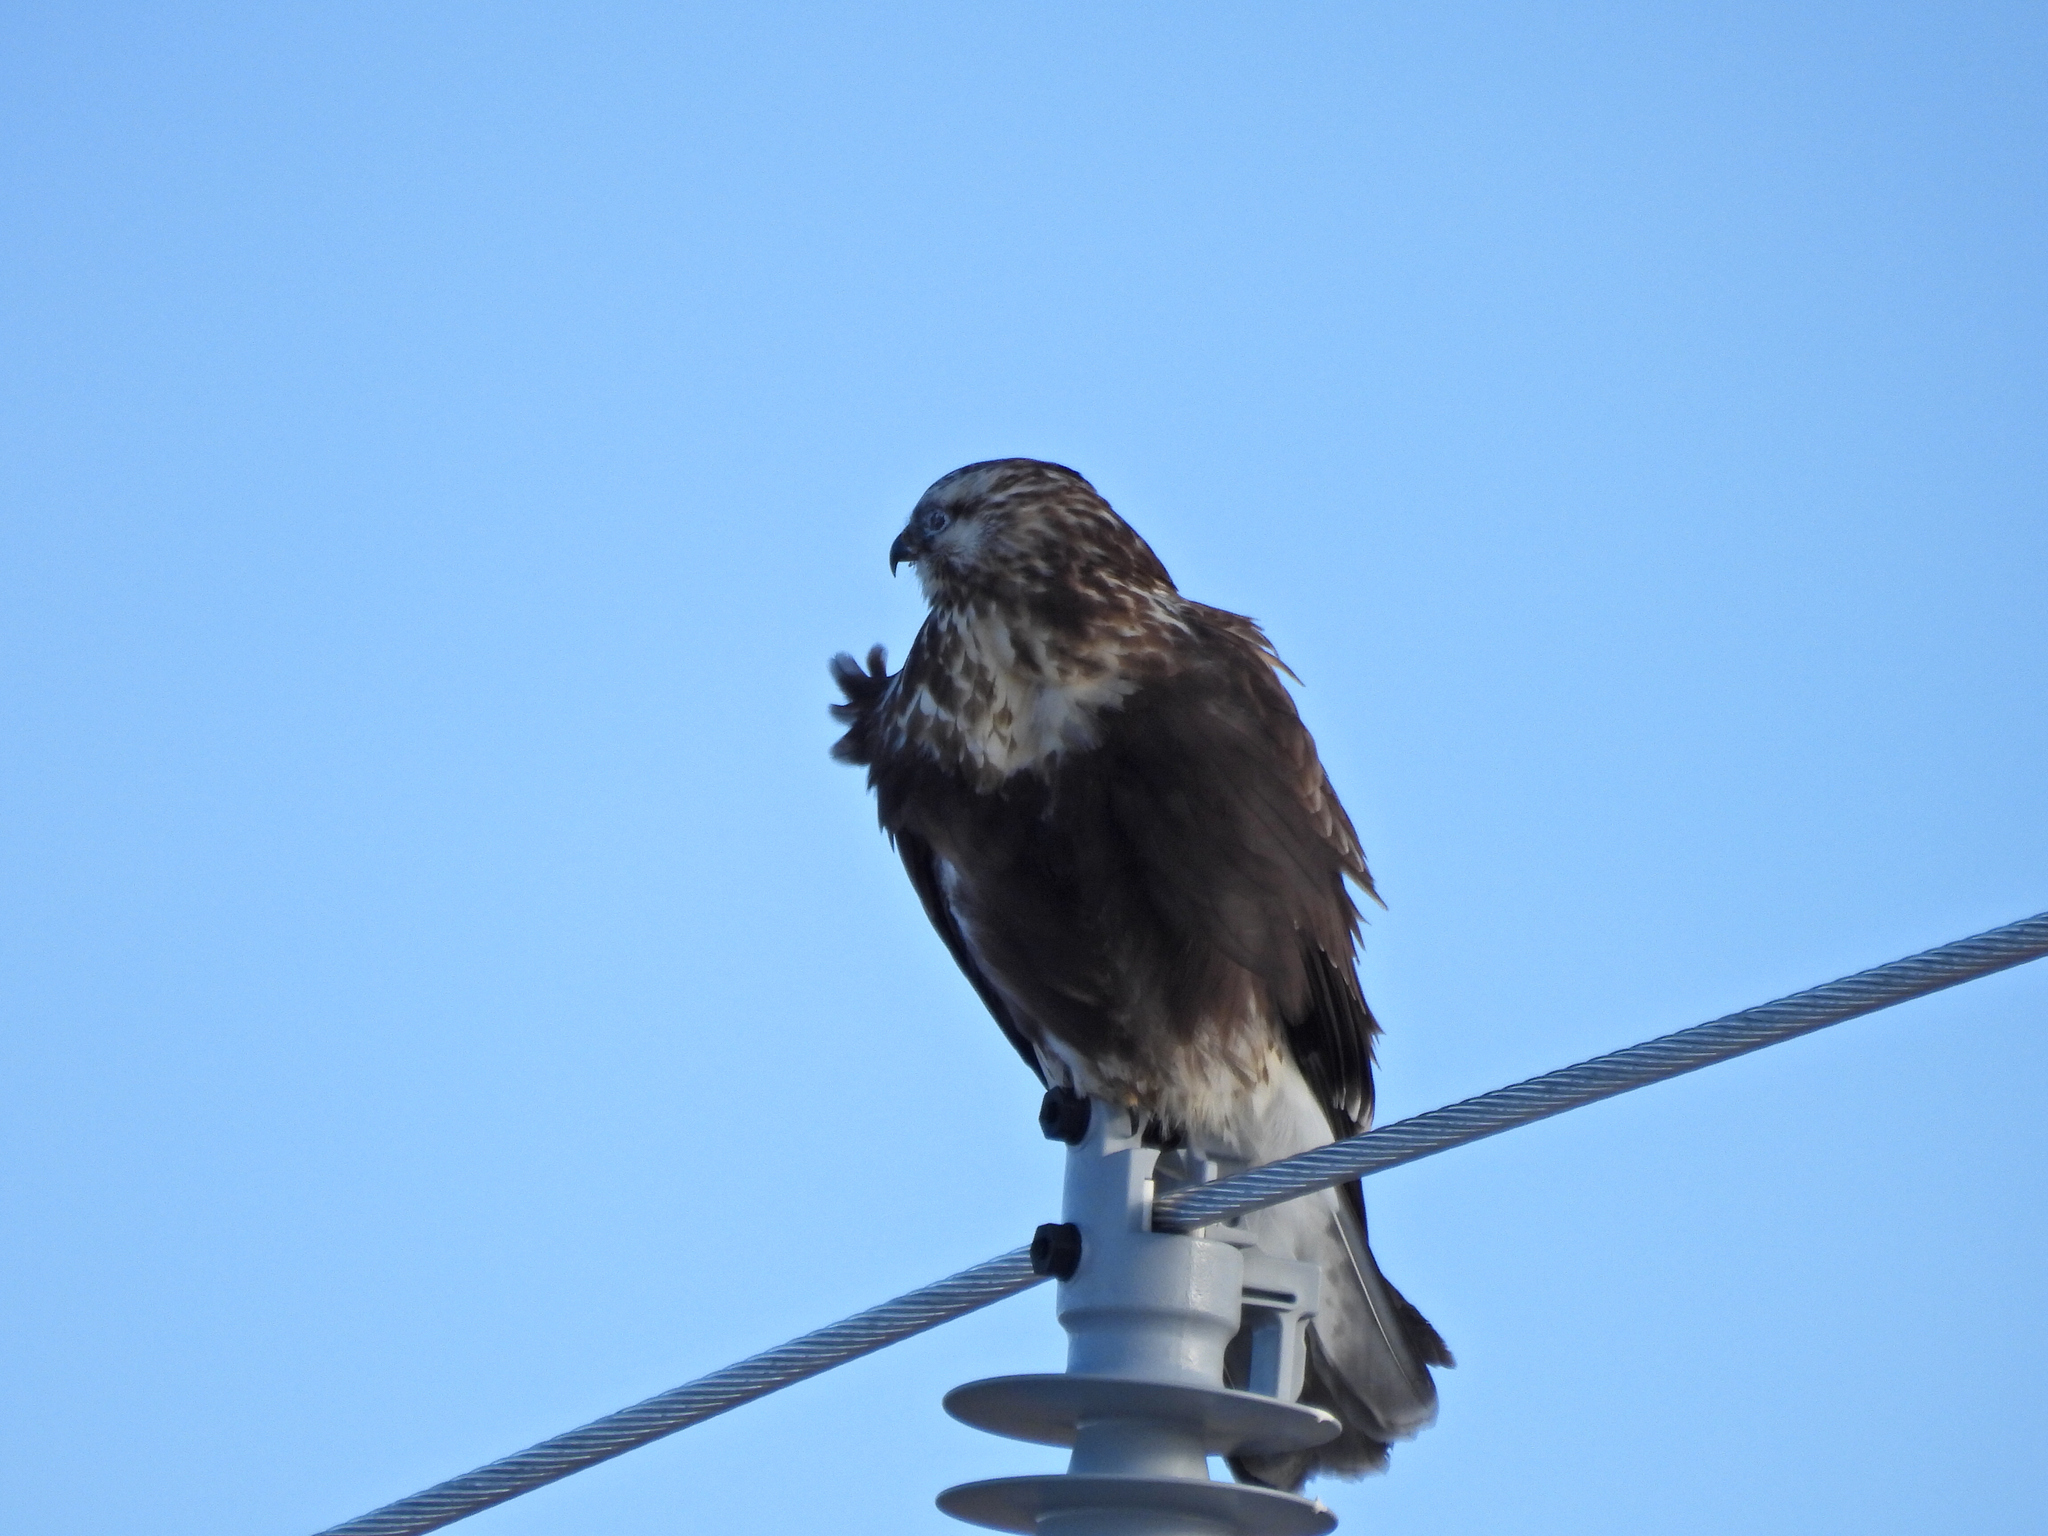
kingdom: Animalia
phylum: Chordata
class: Aves
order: Accipitriformes
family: Accipitridae
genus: Buteo
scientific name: Buteo lagopus
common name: Rough-legged buzzard
